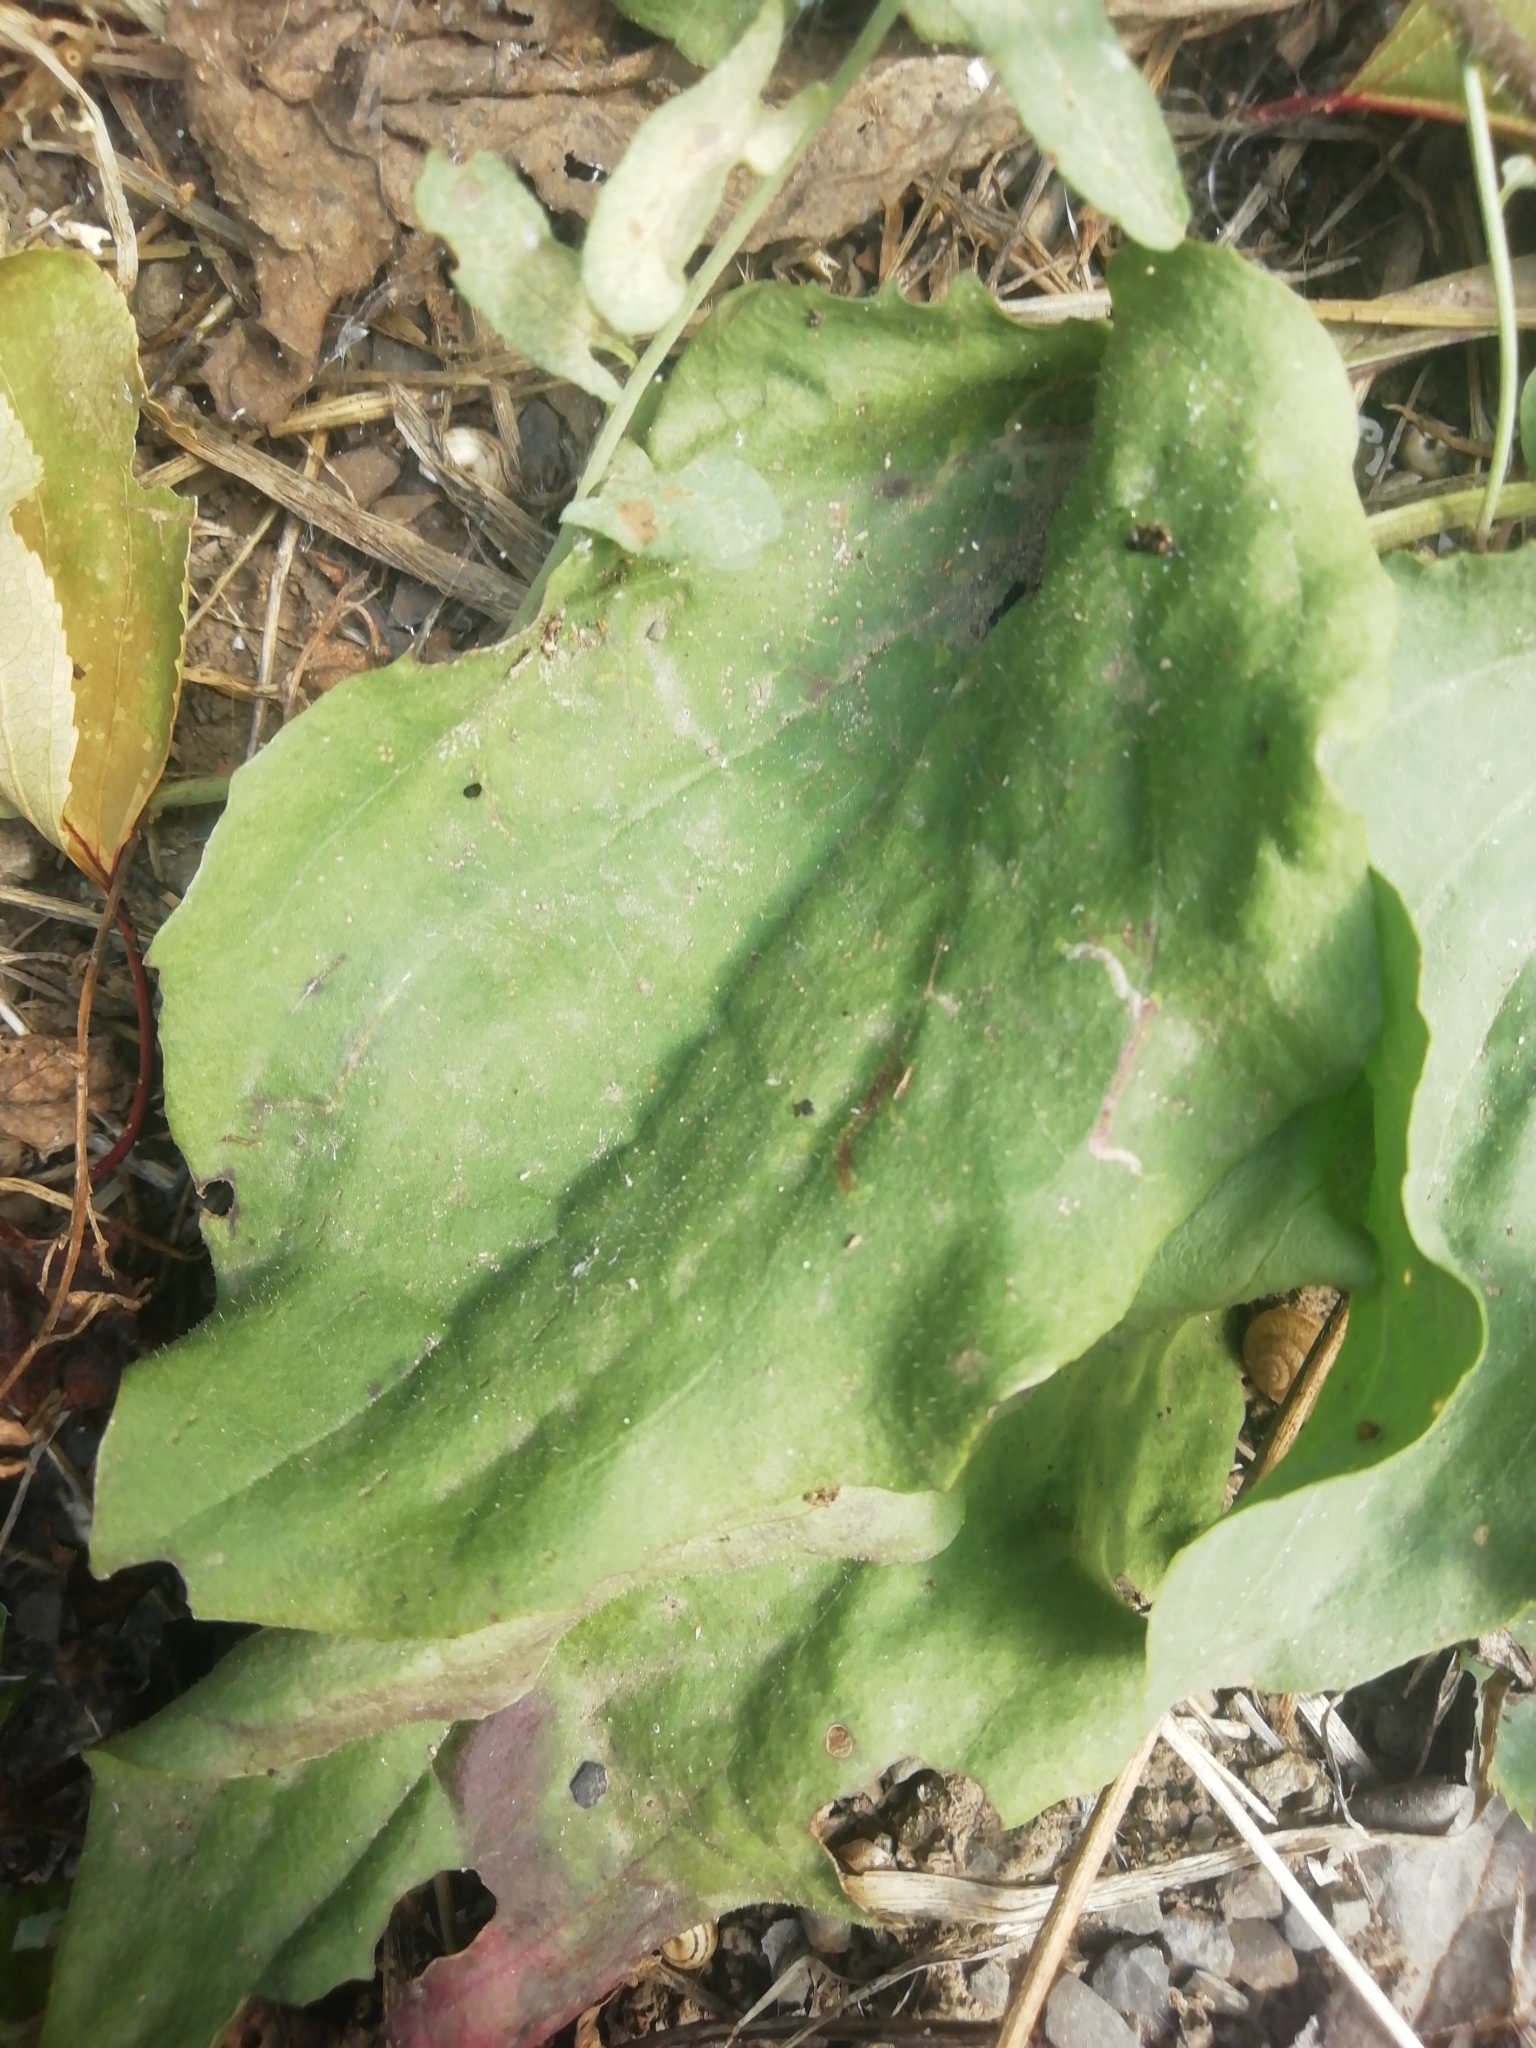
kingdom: Plantae
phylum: Tracheophyta
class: Magnoliopsida
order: Lamiales
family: Plantaginaceae
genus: Plantago
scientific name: Plantago major
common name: Common plantain
